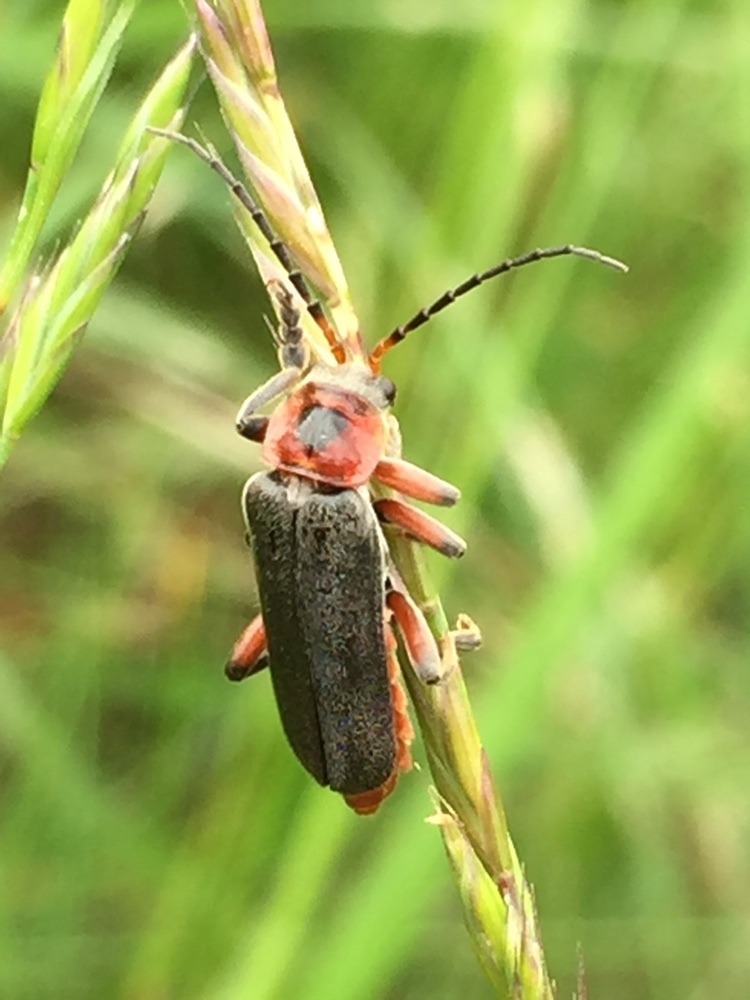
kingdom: Animalia
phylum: Arthropoda
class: Insecta
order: Coleoptera
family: Cantharidae
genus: Cantharis
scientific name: Cantharis rustica
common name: Soldier beetle
